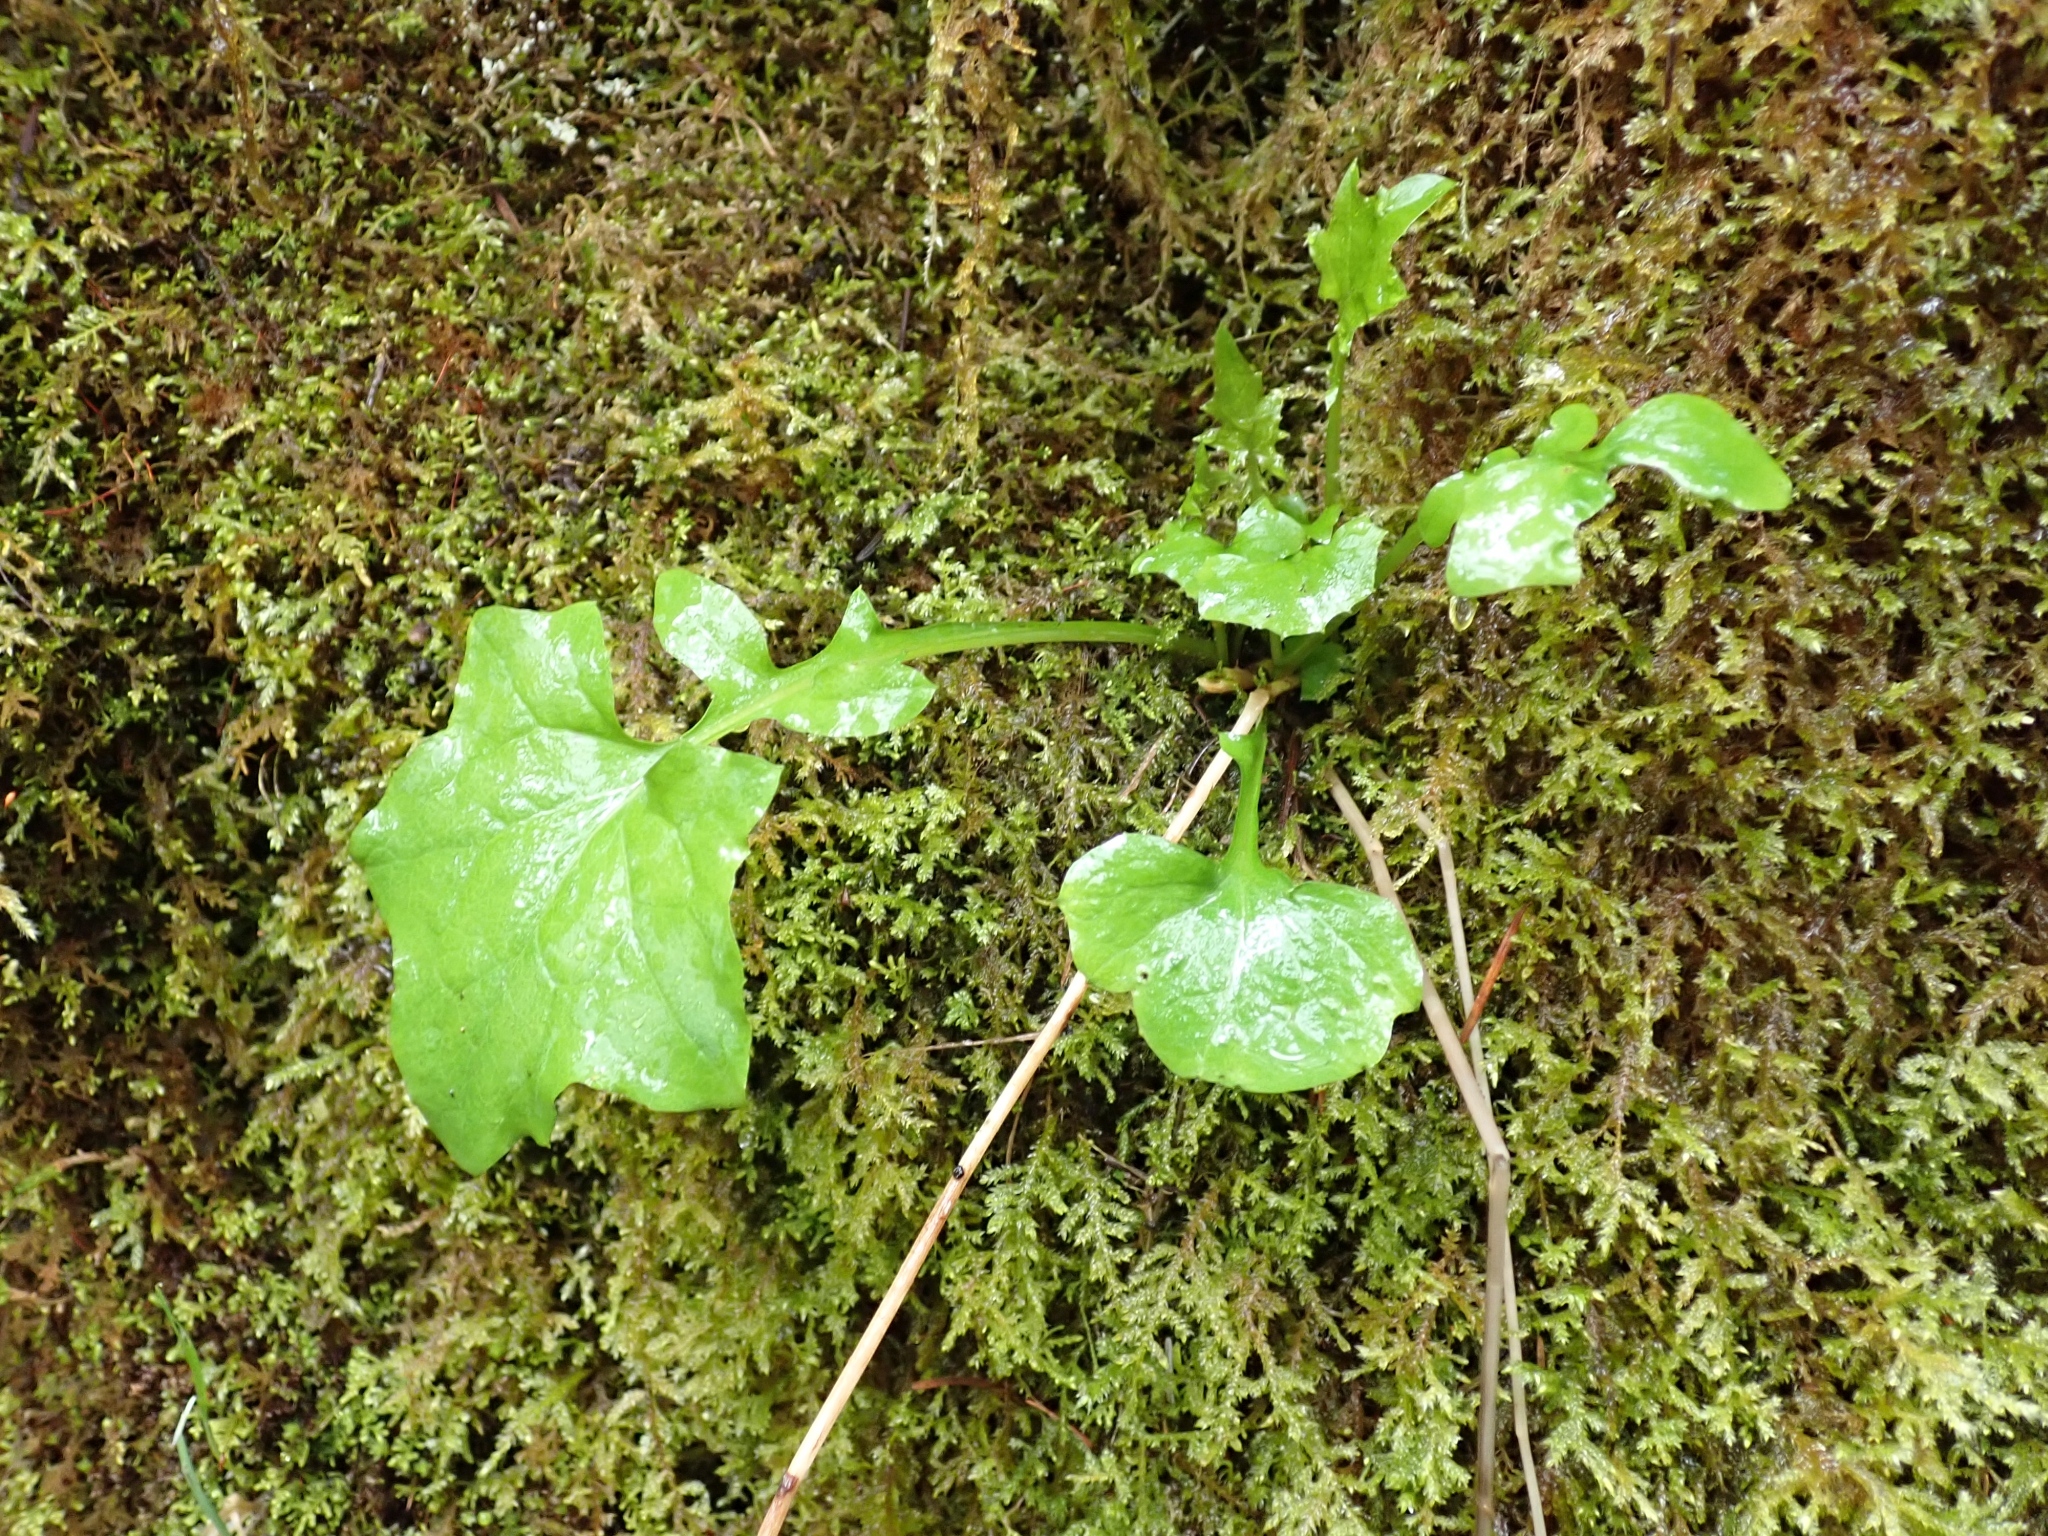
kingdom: Plantae
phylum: Tracheophyta
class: Magnoliopsida
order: Asterales
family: Asteraceae
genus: Mycelis
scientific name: Mycelis muralis
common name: Wall lettuce
